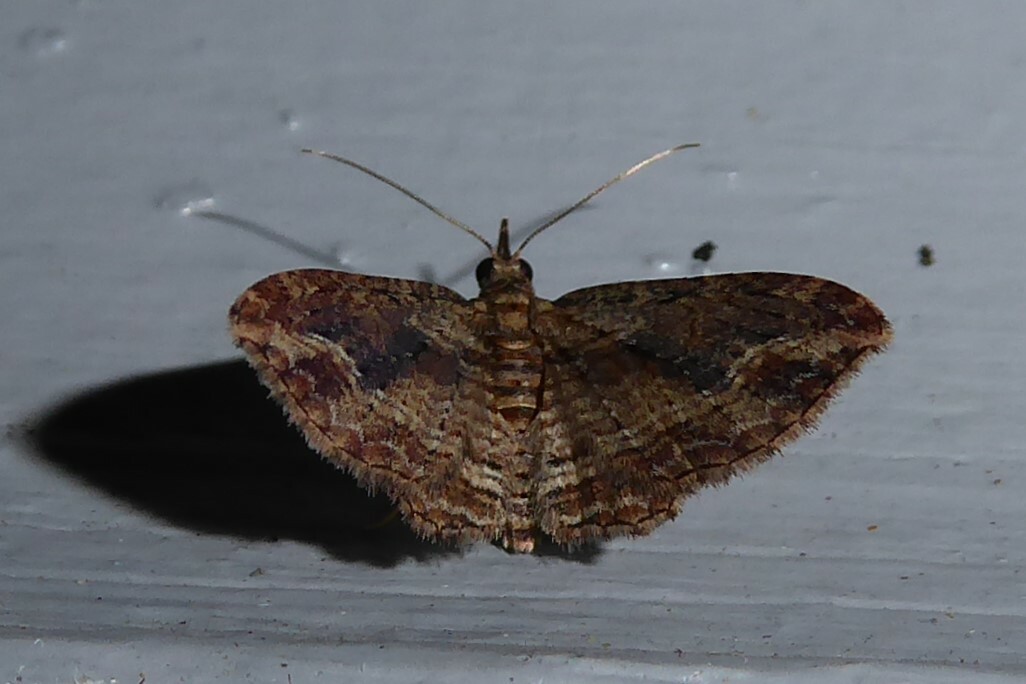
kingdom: Animalia
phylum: Arthropoda
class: Insecta
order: Lepidoptera
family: Geometridae
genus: Chloroclystis
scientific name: Chloroclystis filata
